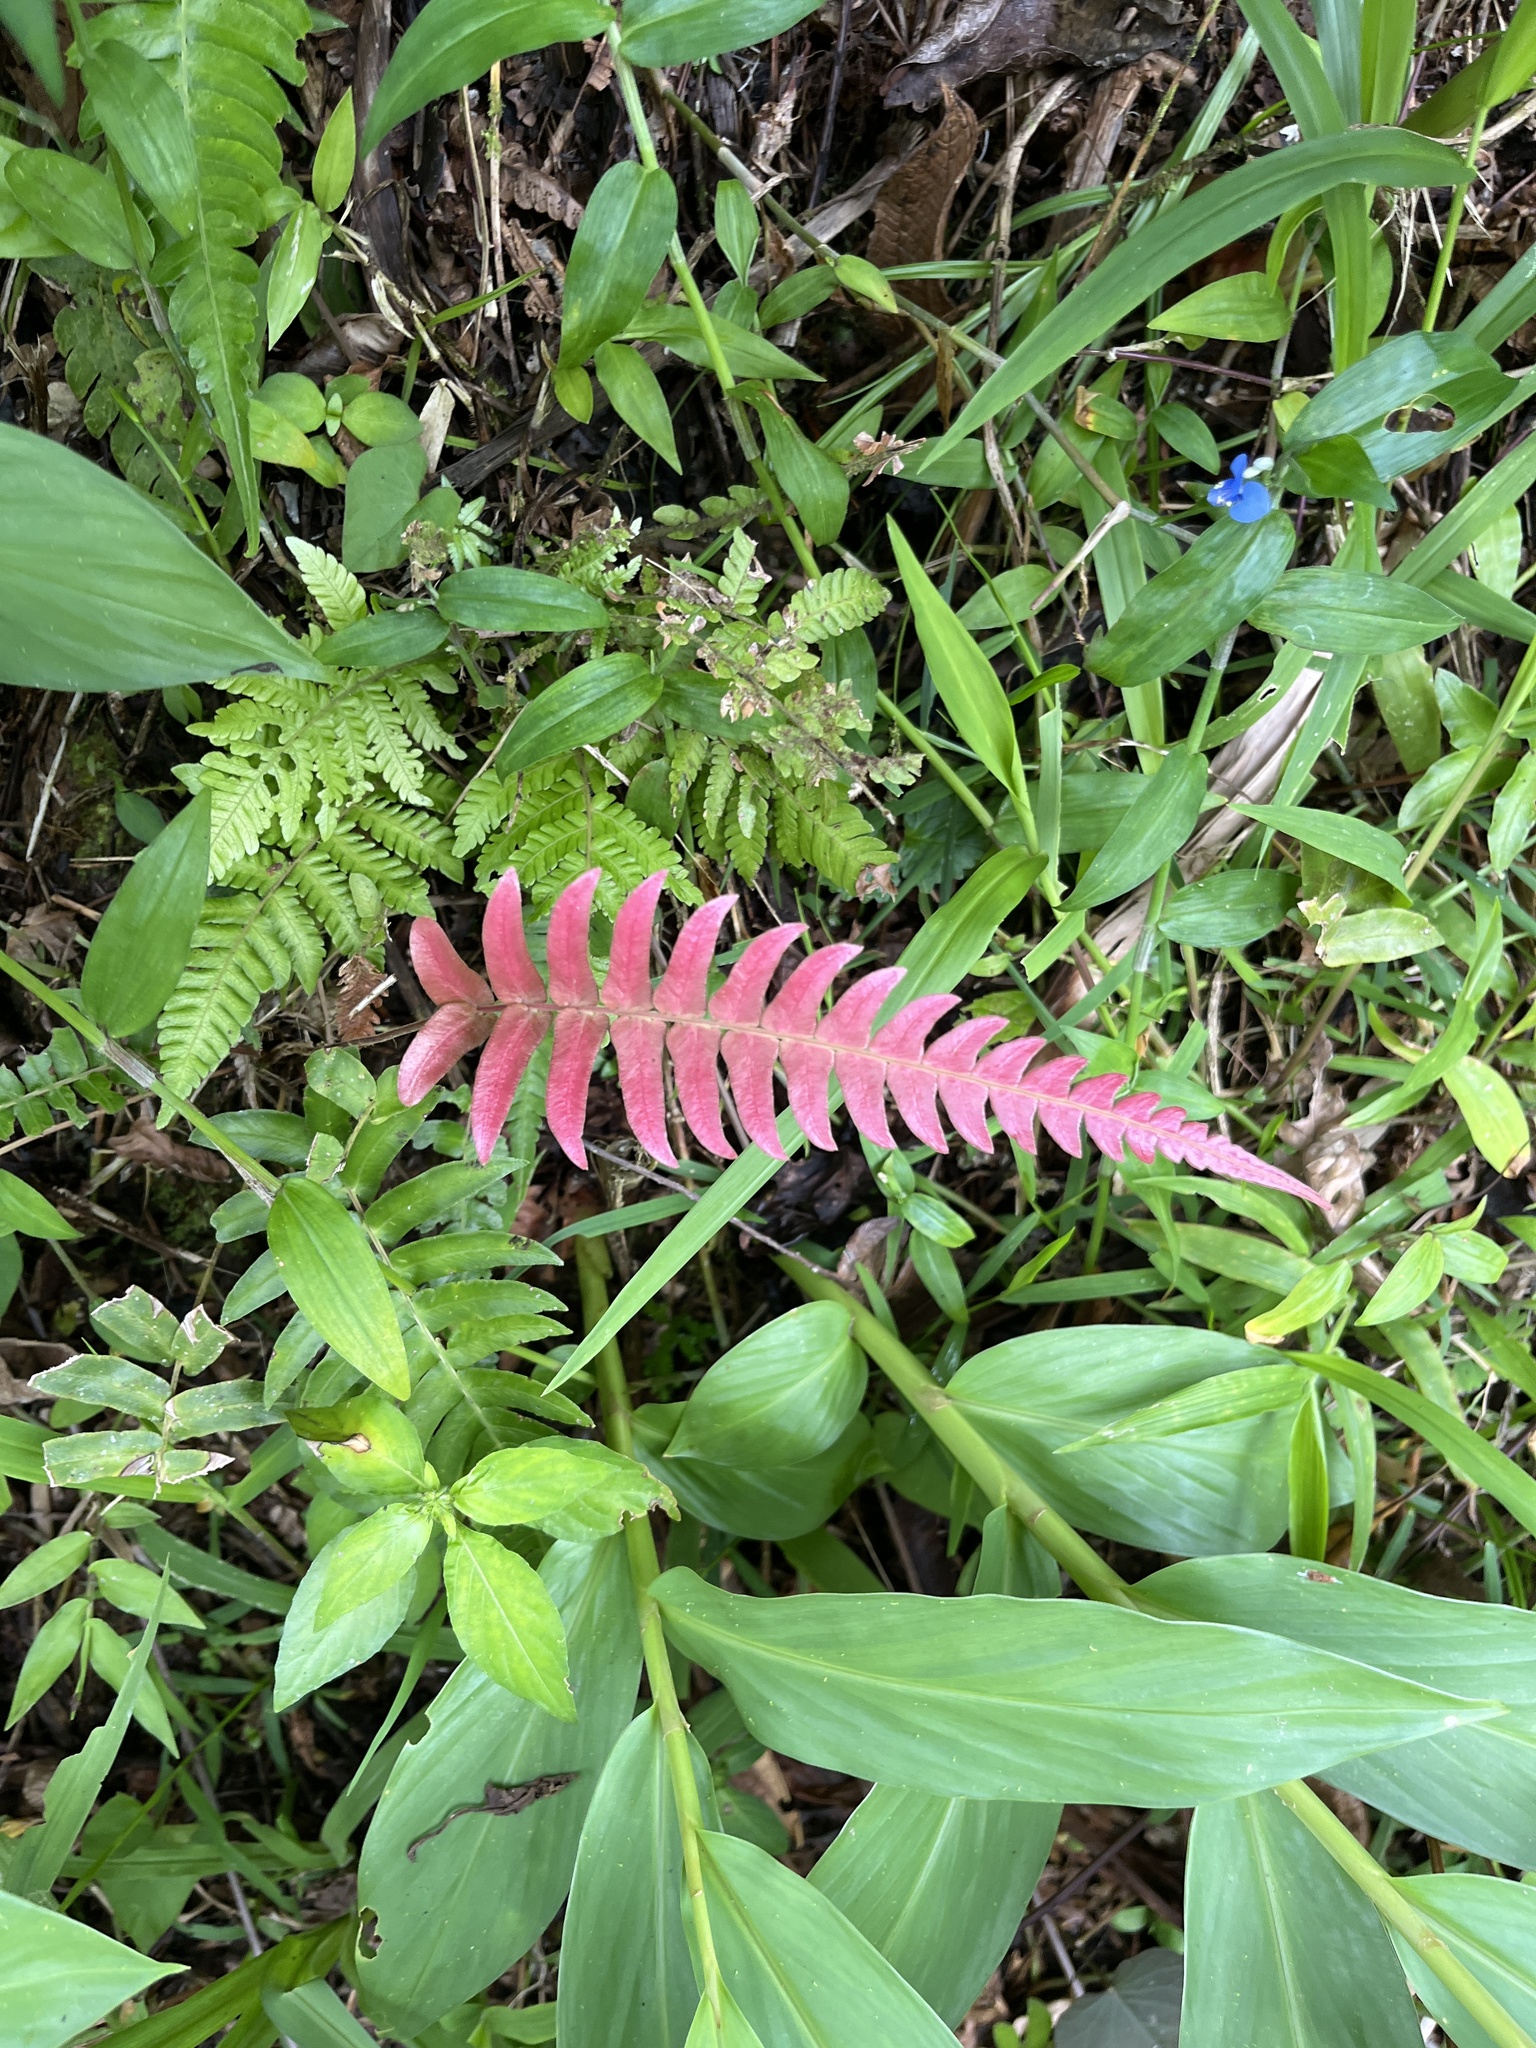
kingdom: Plantae
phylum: Tracheophyta
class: Polypodiopsida
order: Polypodiales
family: Blechnaceae
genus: Blechnum
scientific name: Blechnum occidentale
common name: Hammock fern
